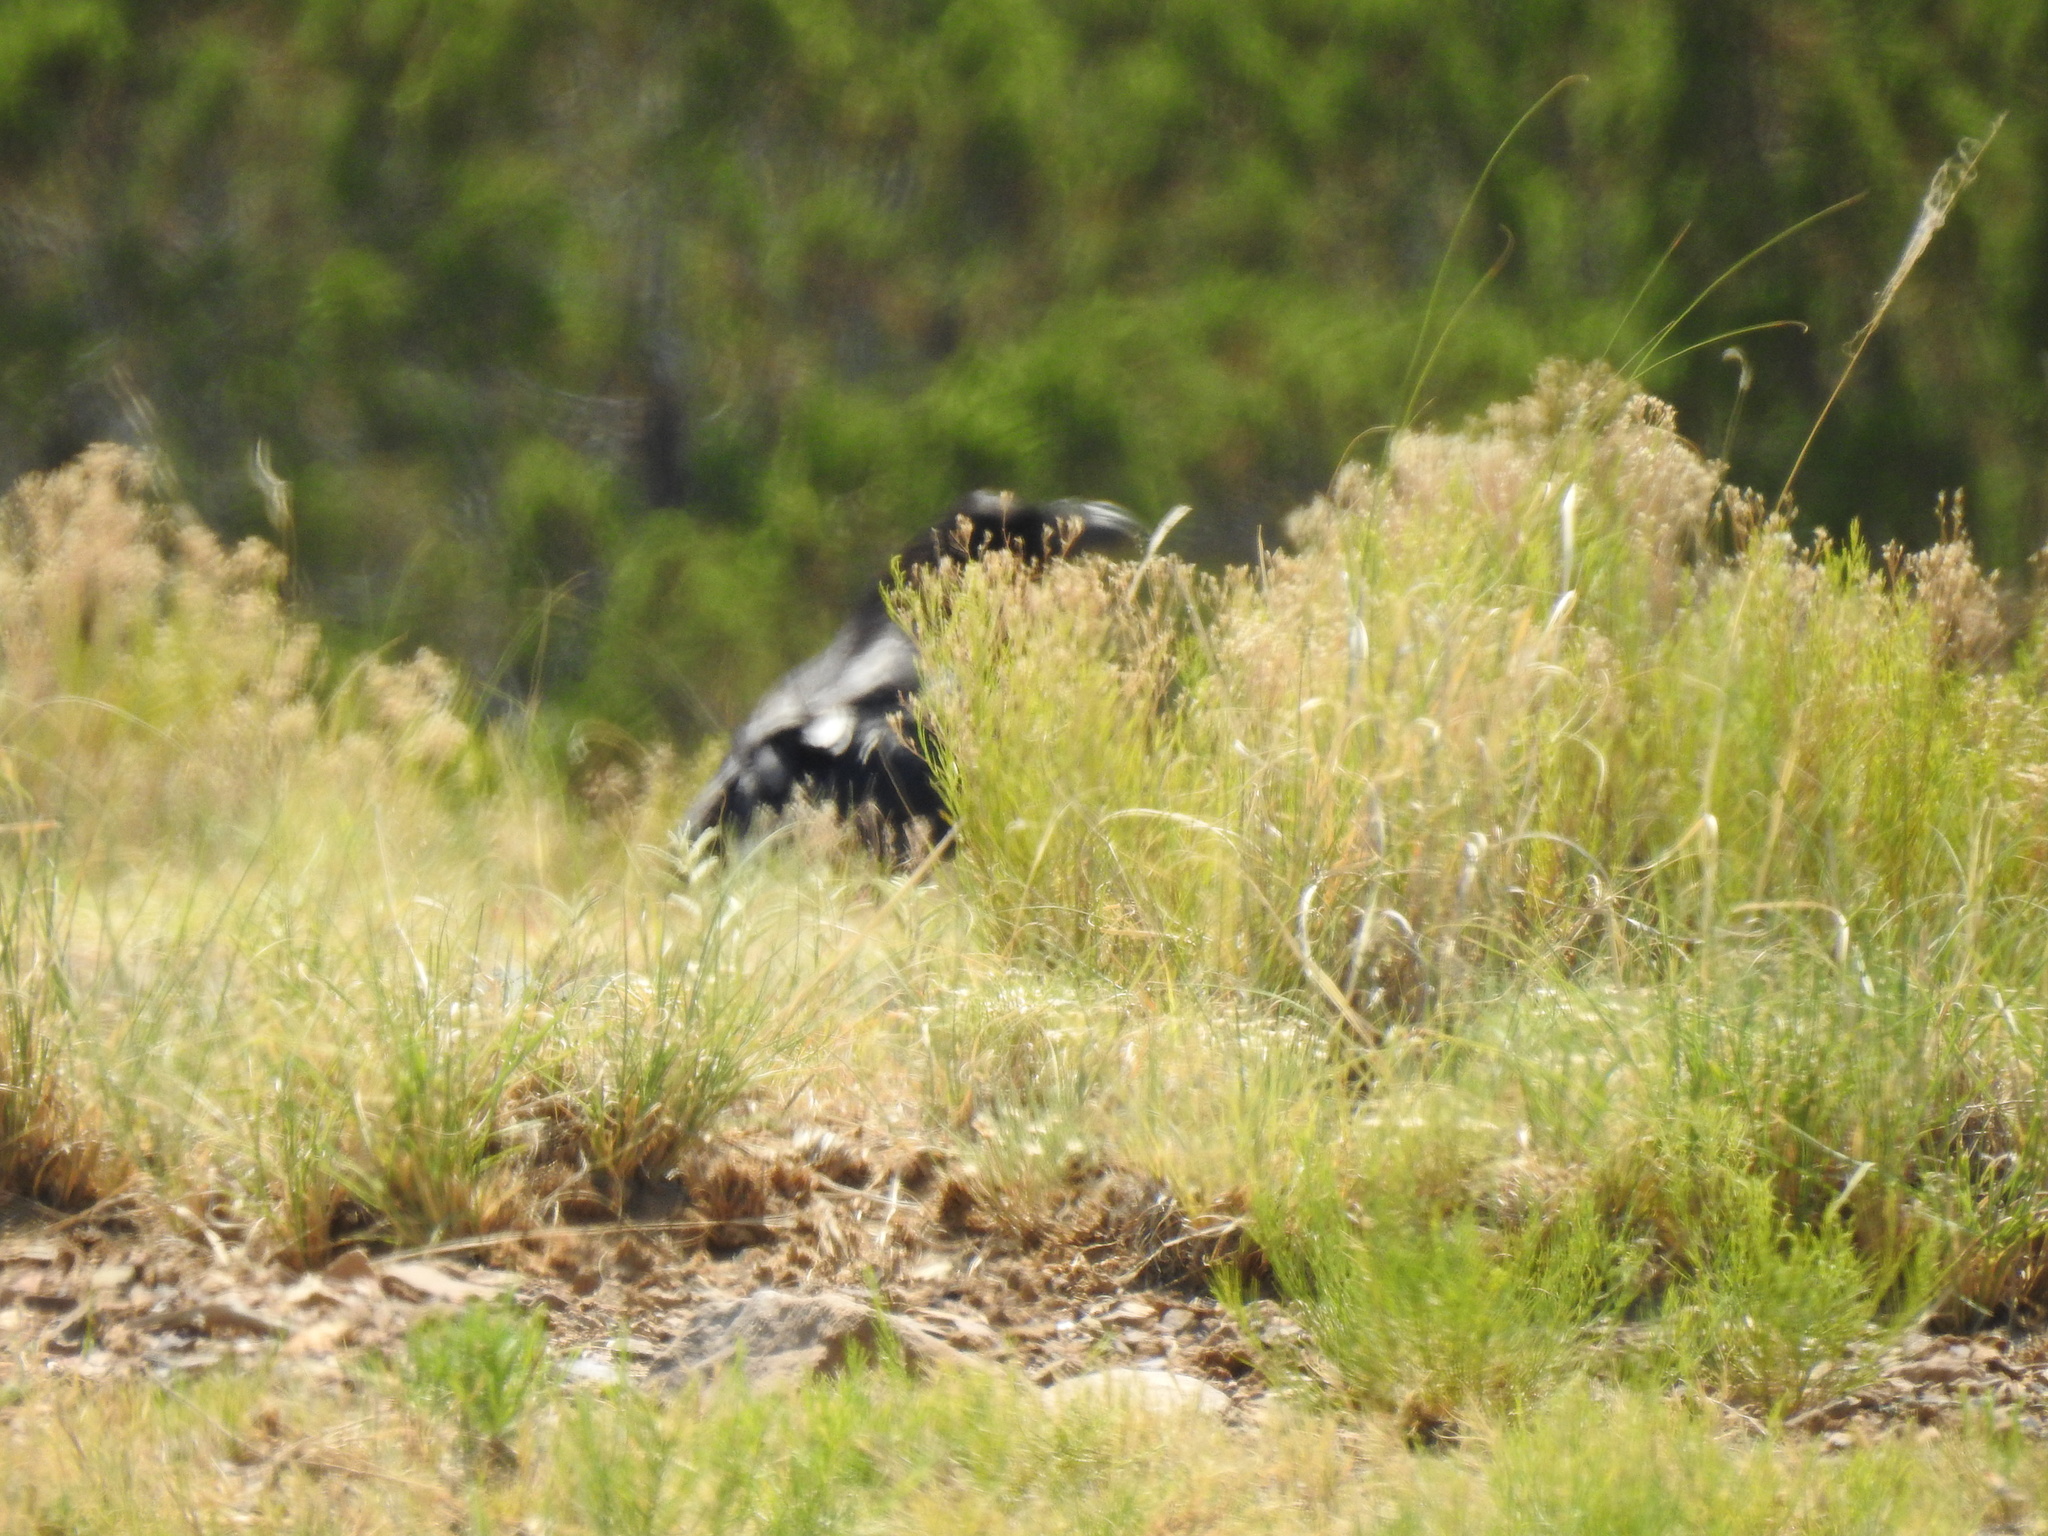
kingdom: Animalia
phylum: Chordata
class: Aves
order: Passeriformes
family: Corvidae
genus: Corvus
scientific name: Corvus corax
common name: Common raven
